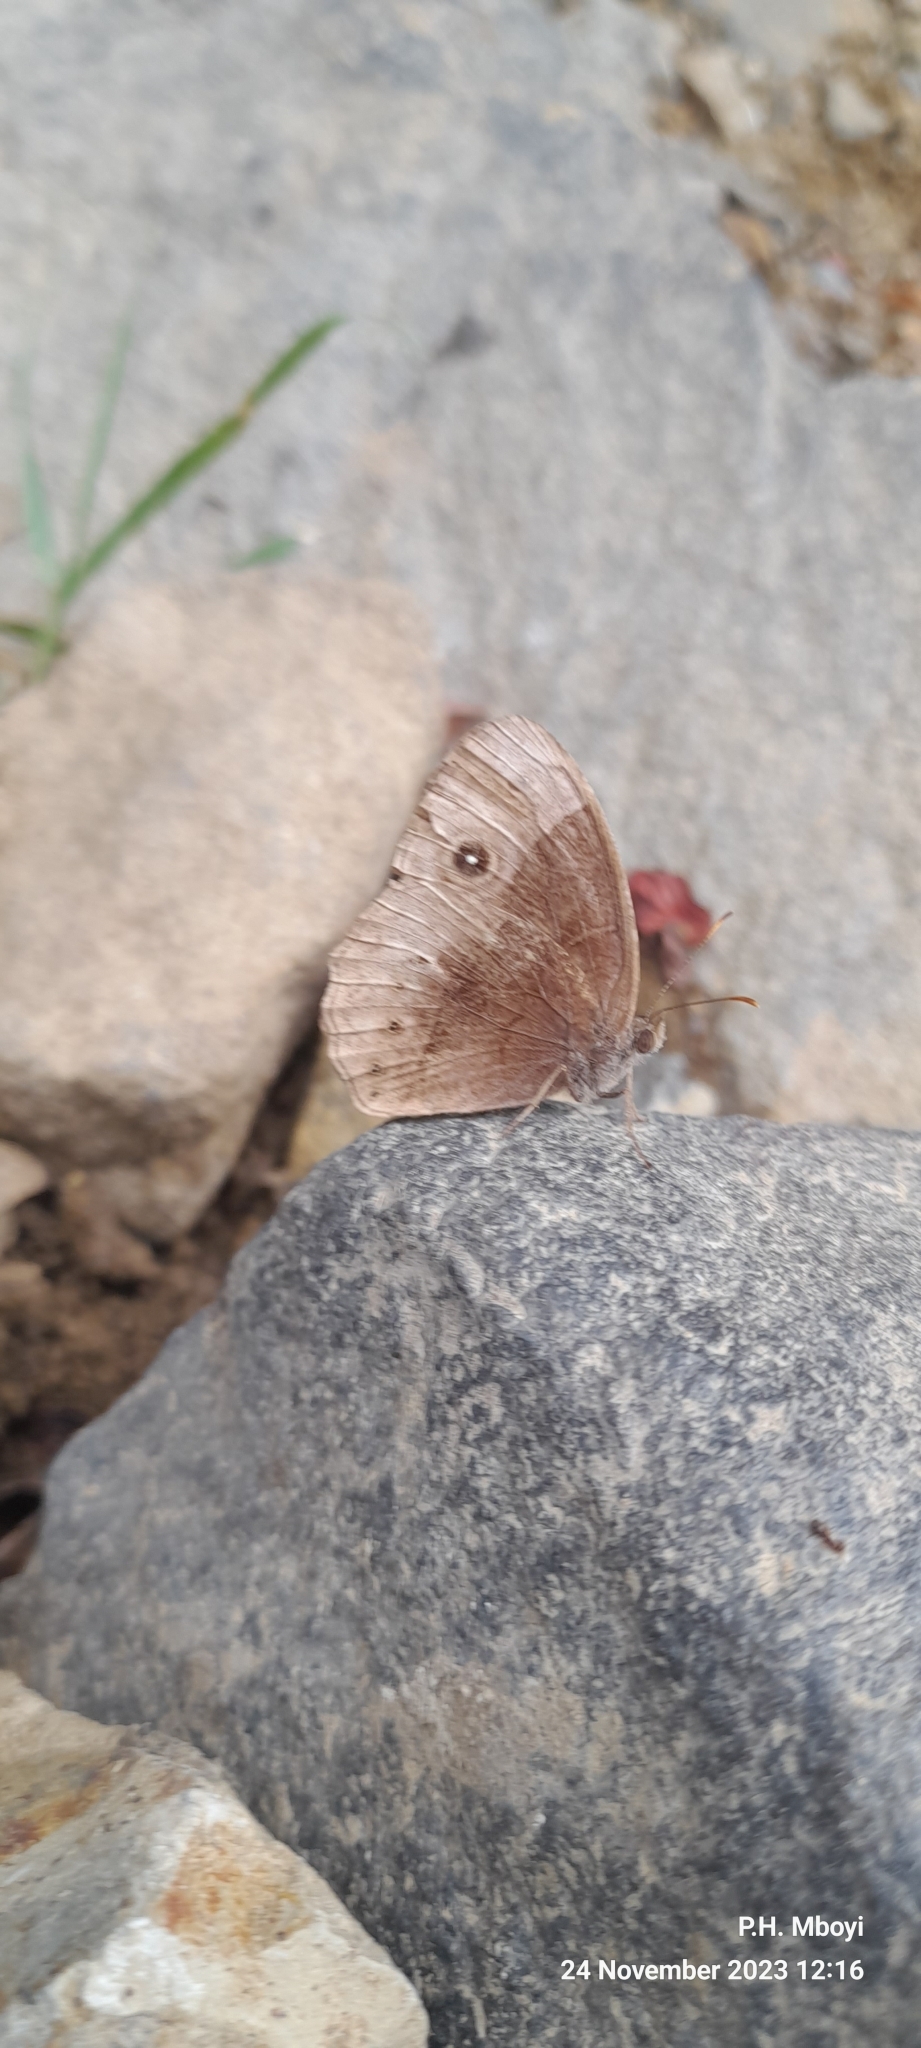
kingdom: Animalia
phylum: Arthropoda
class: Insecta
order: Lepidoptera
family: Nymphalidae
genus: Mycalesis
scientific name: Mycalesis rhacotis
